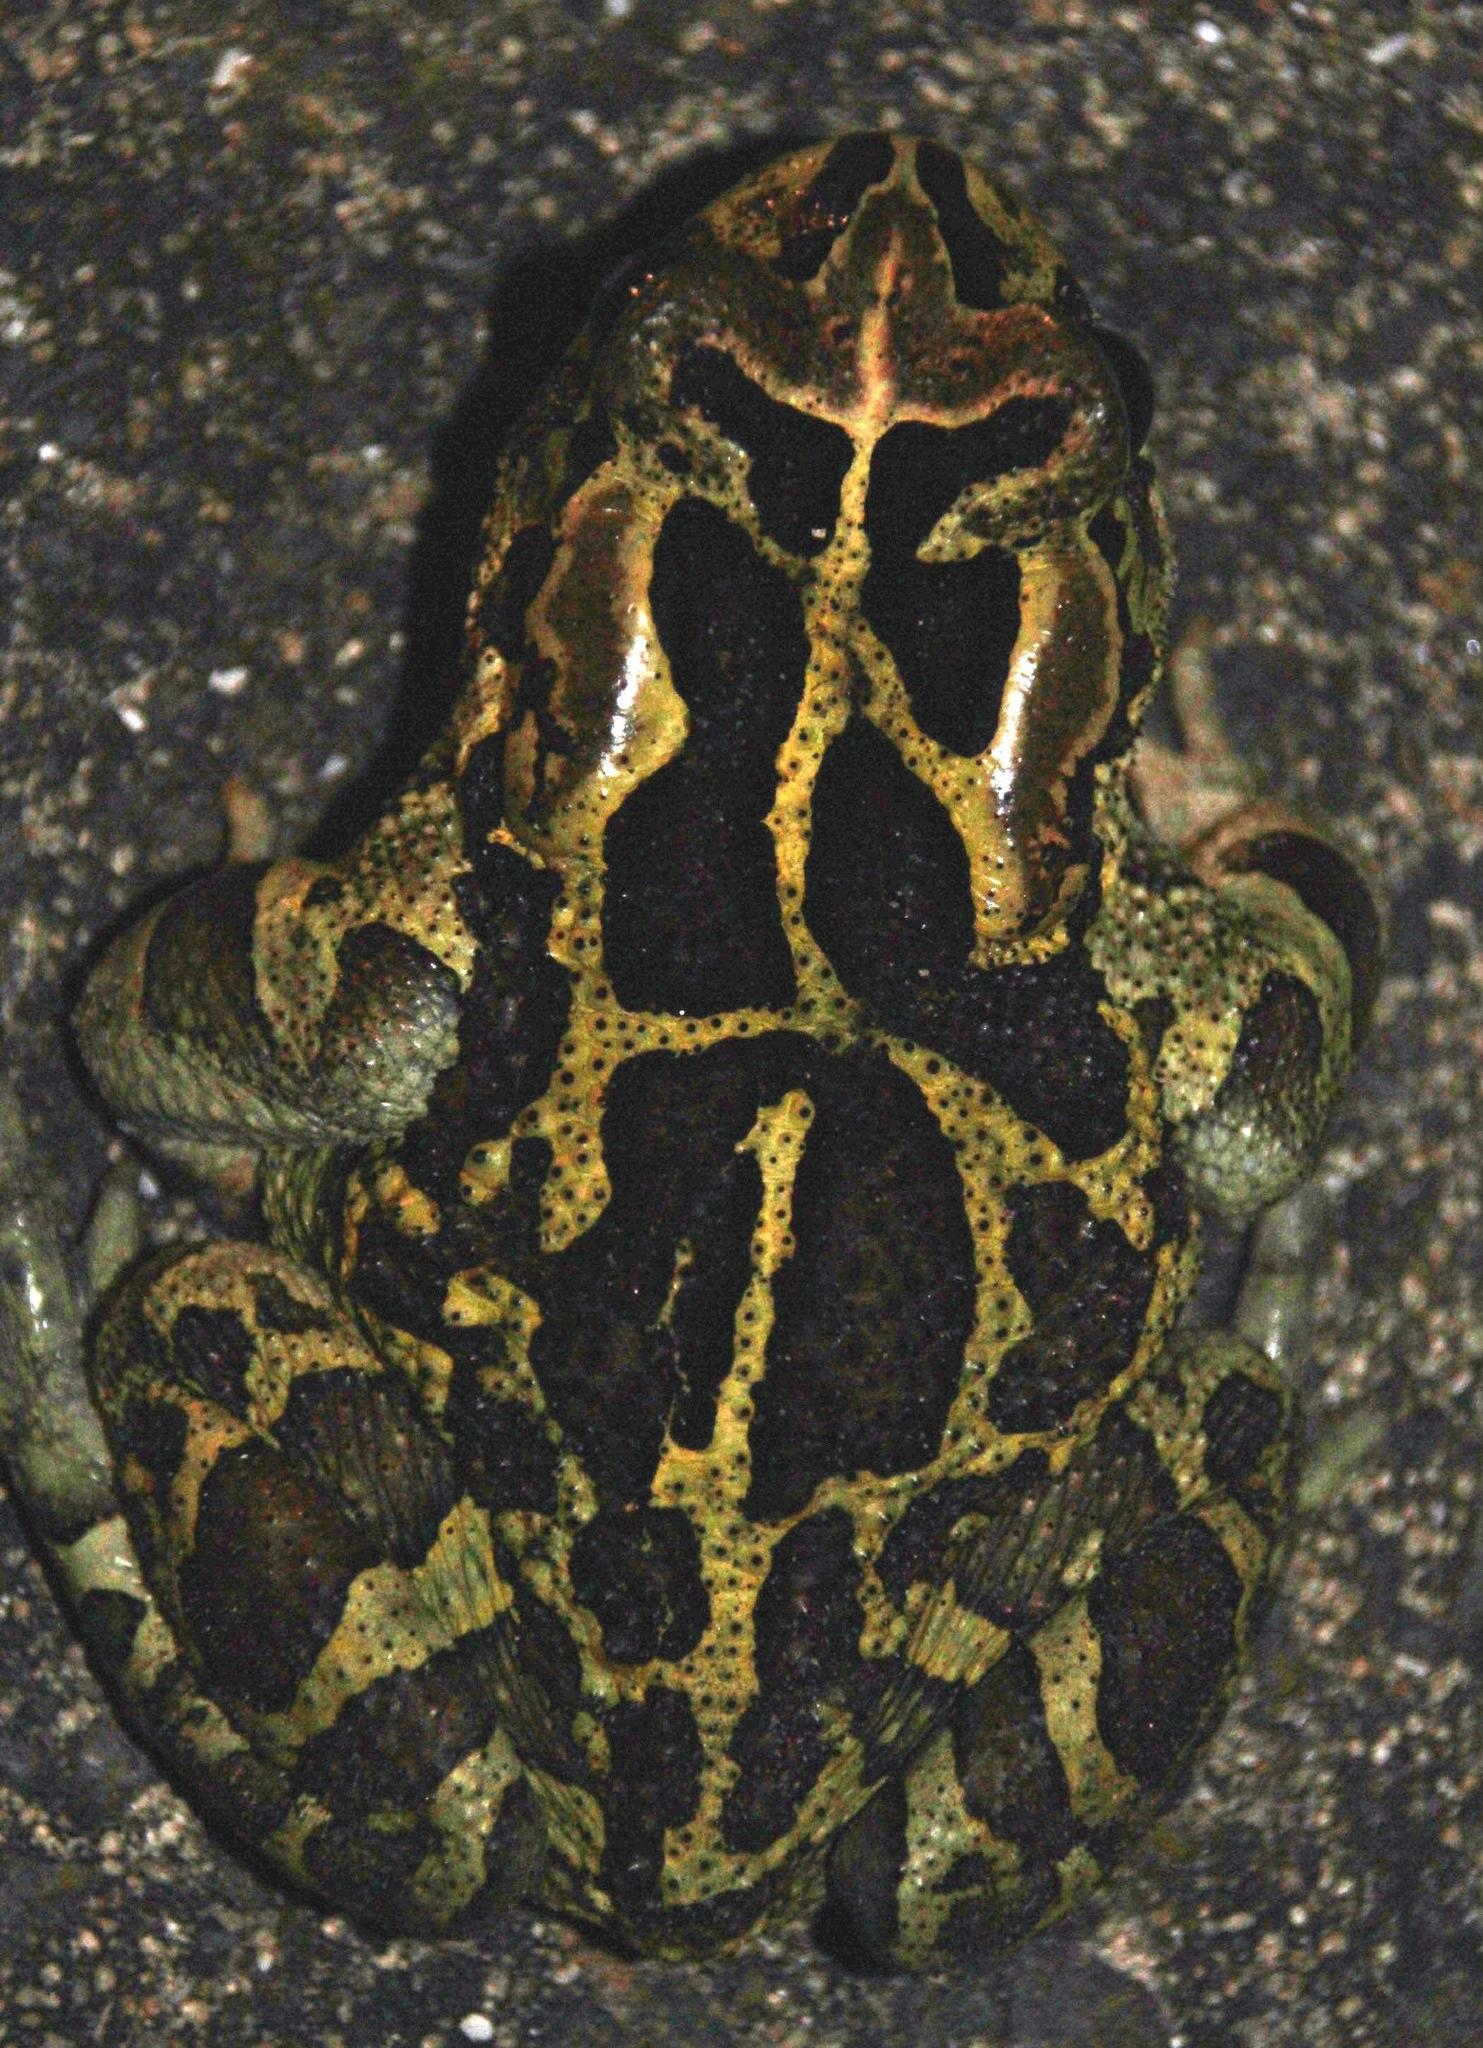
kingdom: Animalia
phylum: Chordata
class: Amphibia
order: Anura
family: Bufonidae
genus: Sclerophrys
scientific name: Sclerophrys pantherina
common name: Panther toad
